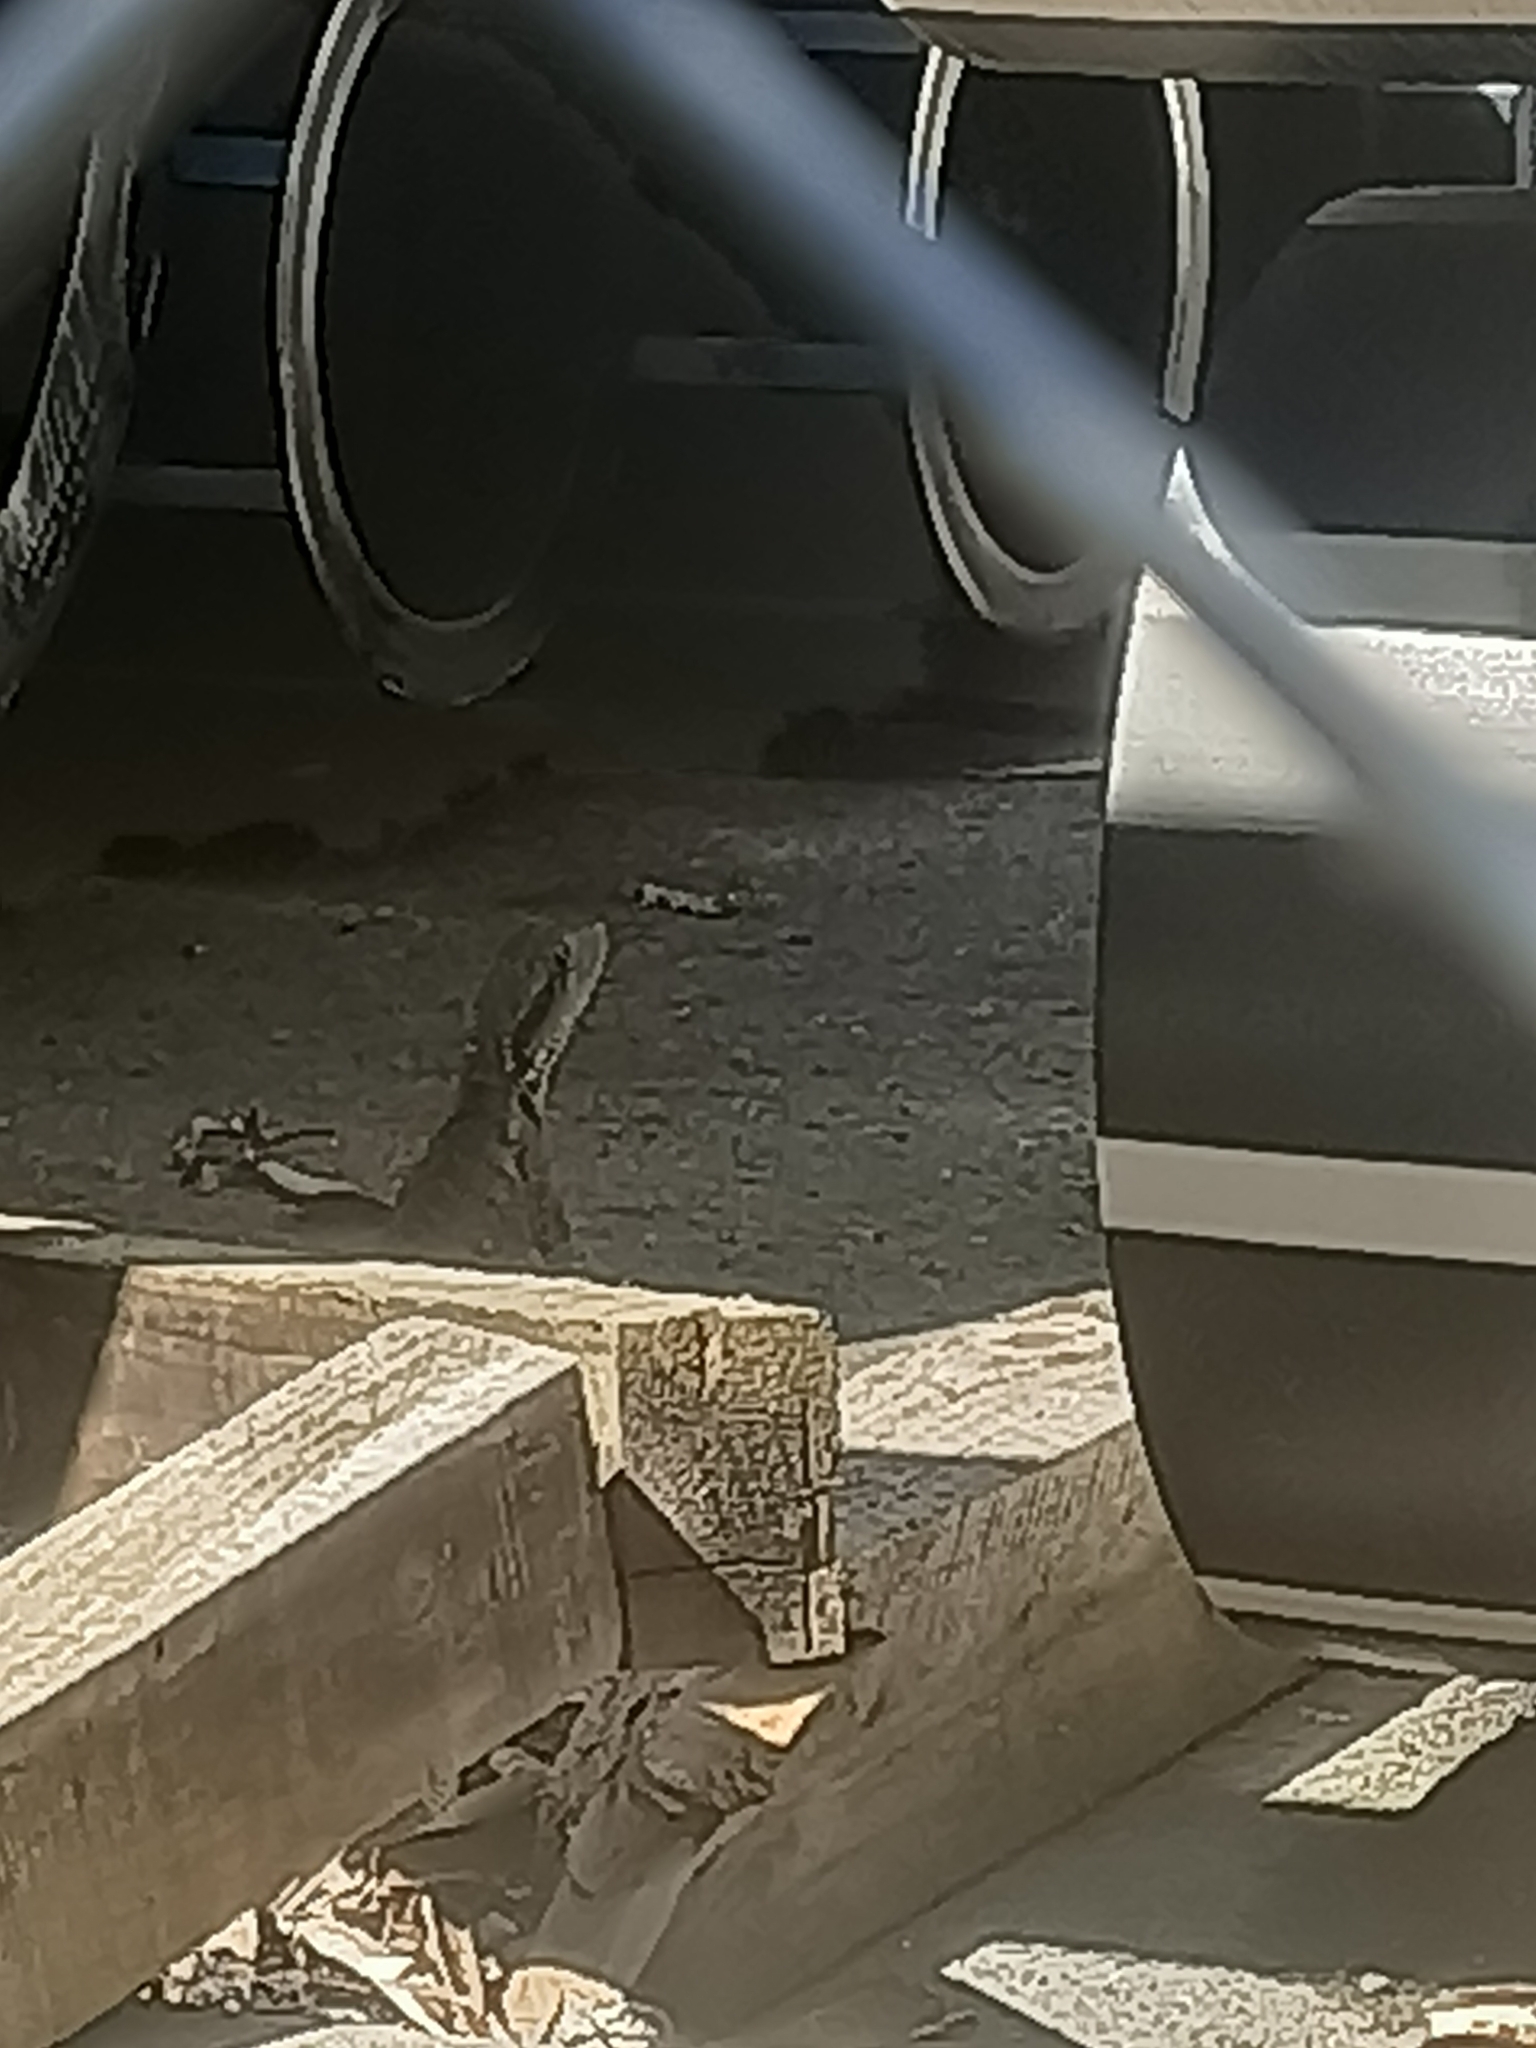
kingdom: Animalia
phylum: Chordata
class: Squamata
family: Agamidae
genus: Intellagama
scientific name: Intellagama lesueurii
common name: Eastern water dragon
